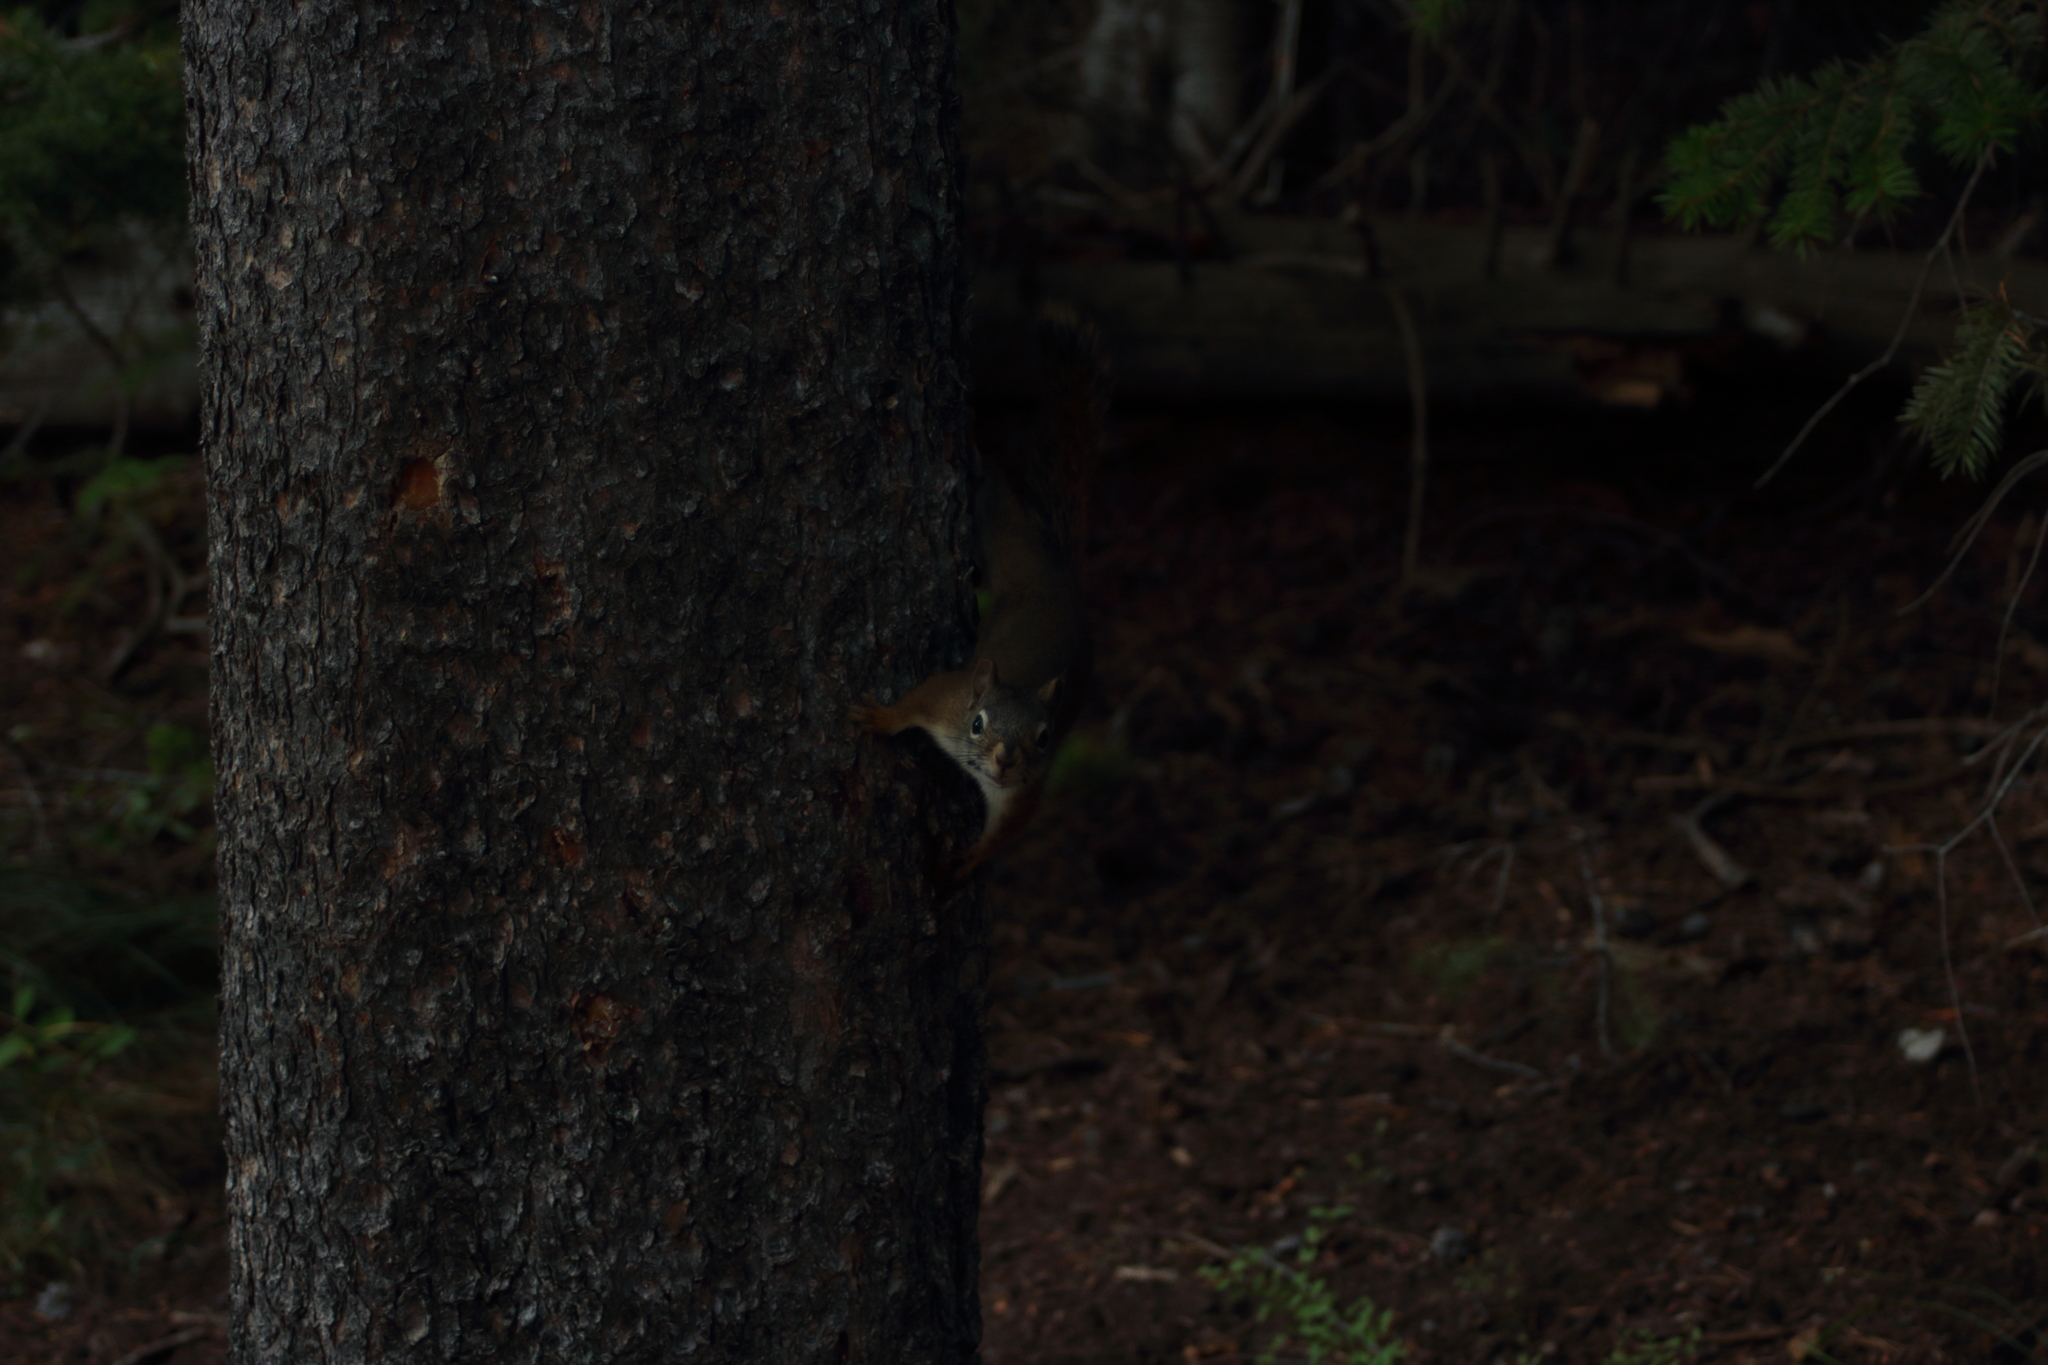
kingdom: Animalia
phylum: Chordata
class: Mammalia
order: Rodentia
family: Sciuridae
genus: Tamiasciurus
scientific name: Tamiasciurus hudsonicus
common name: Red squirrel
